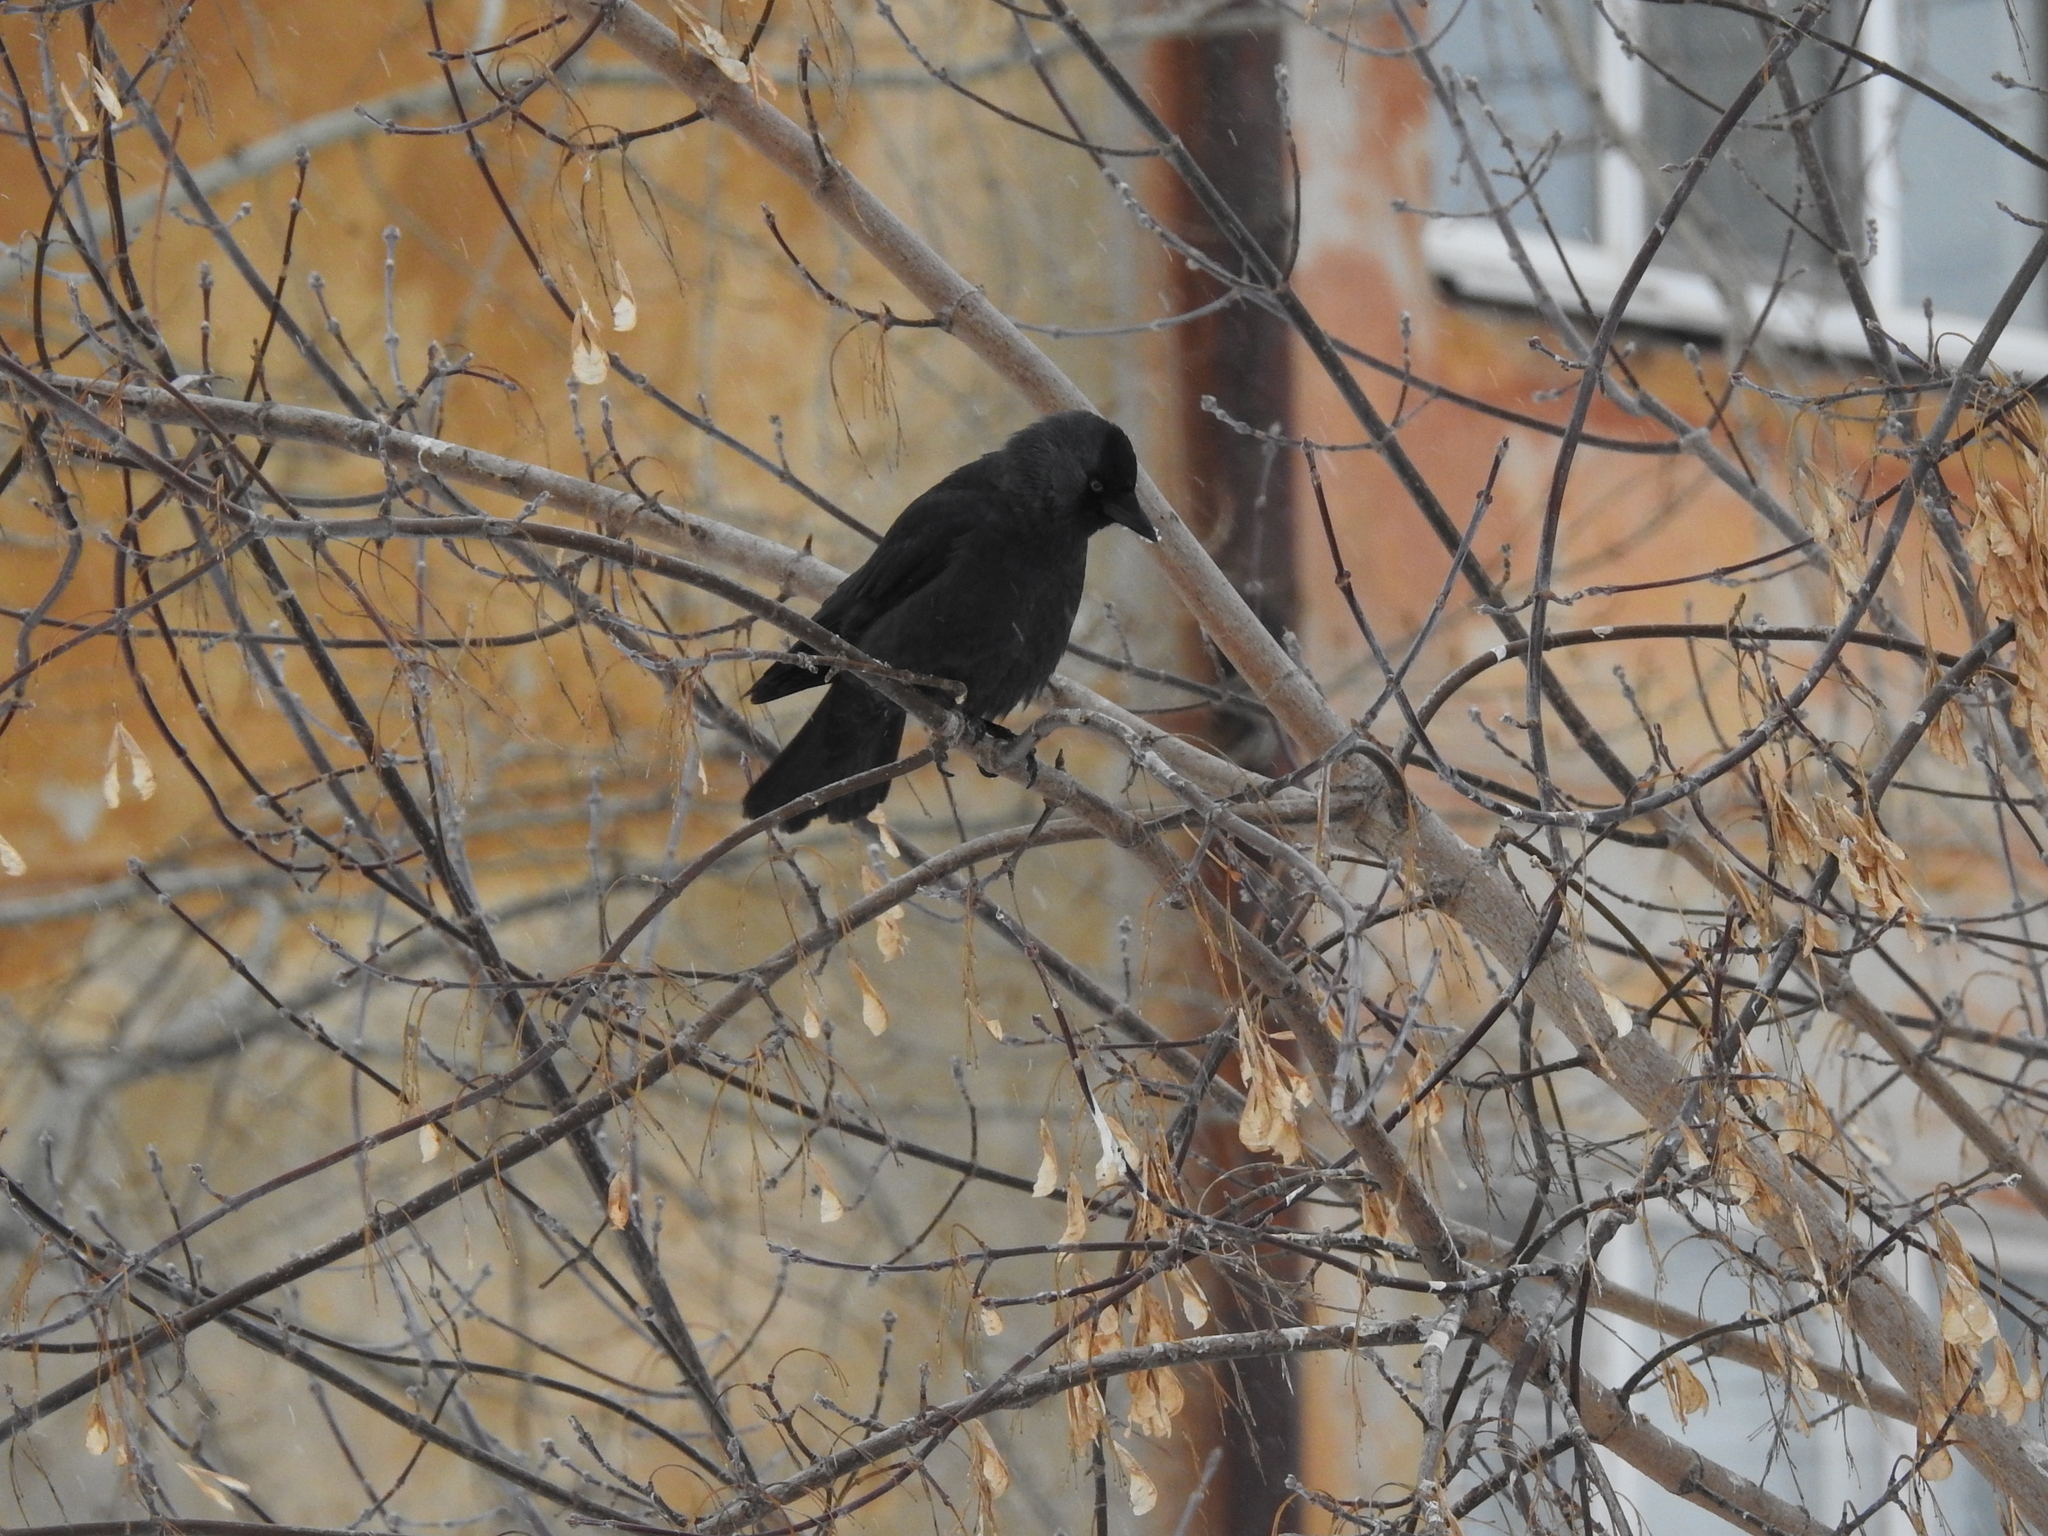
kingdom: Animalia
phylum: Chordata
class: Aves
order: Passeriformes
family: Corvidae
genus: Coloeus
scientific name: Coloeus monedula
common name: Western jackdaw
